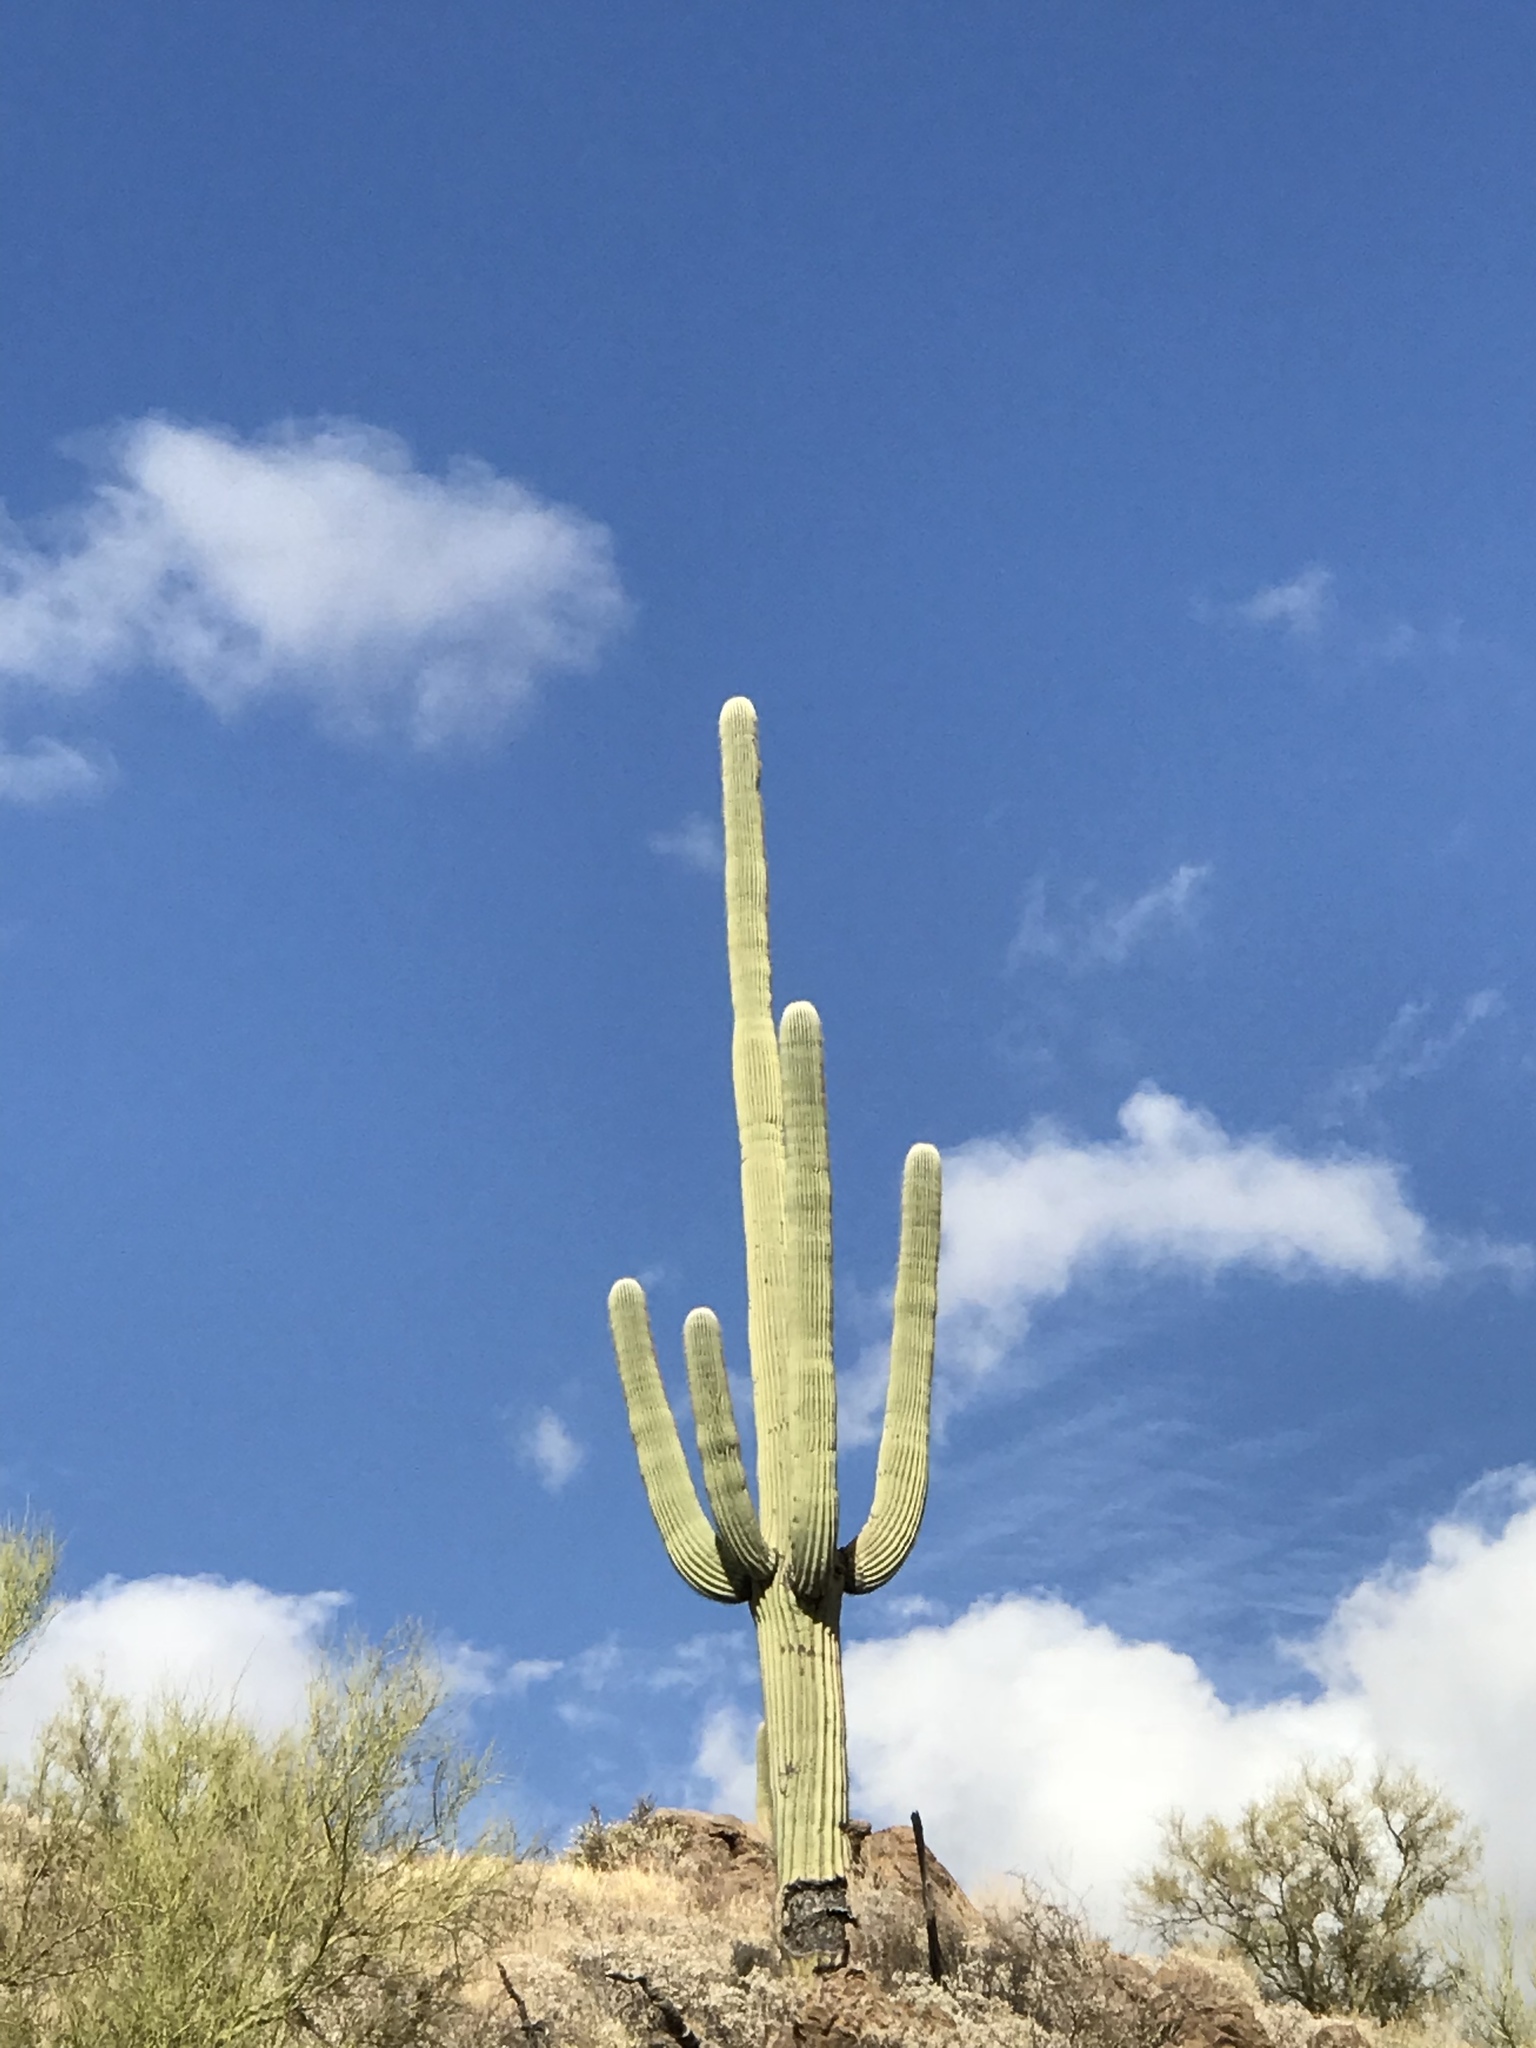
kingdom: Plantae
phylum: Tracheophyta
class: Magnoliopsida
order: Caryophyllales
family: Cactaceae
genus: Carnegiea
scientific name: Carnegiea gigantea
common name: Saguaro
